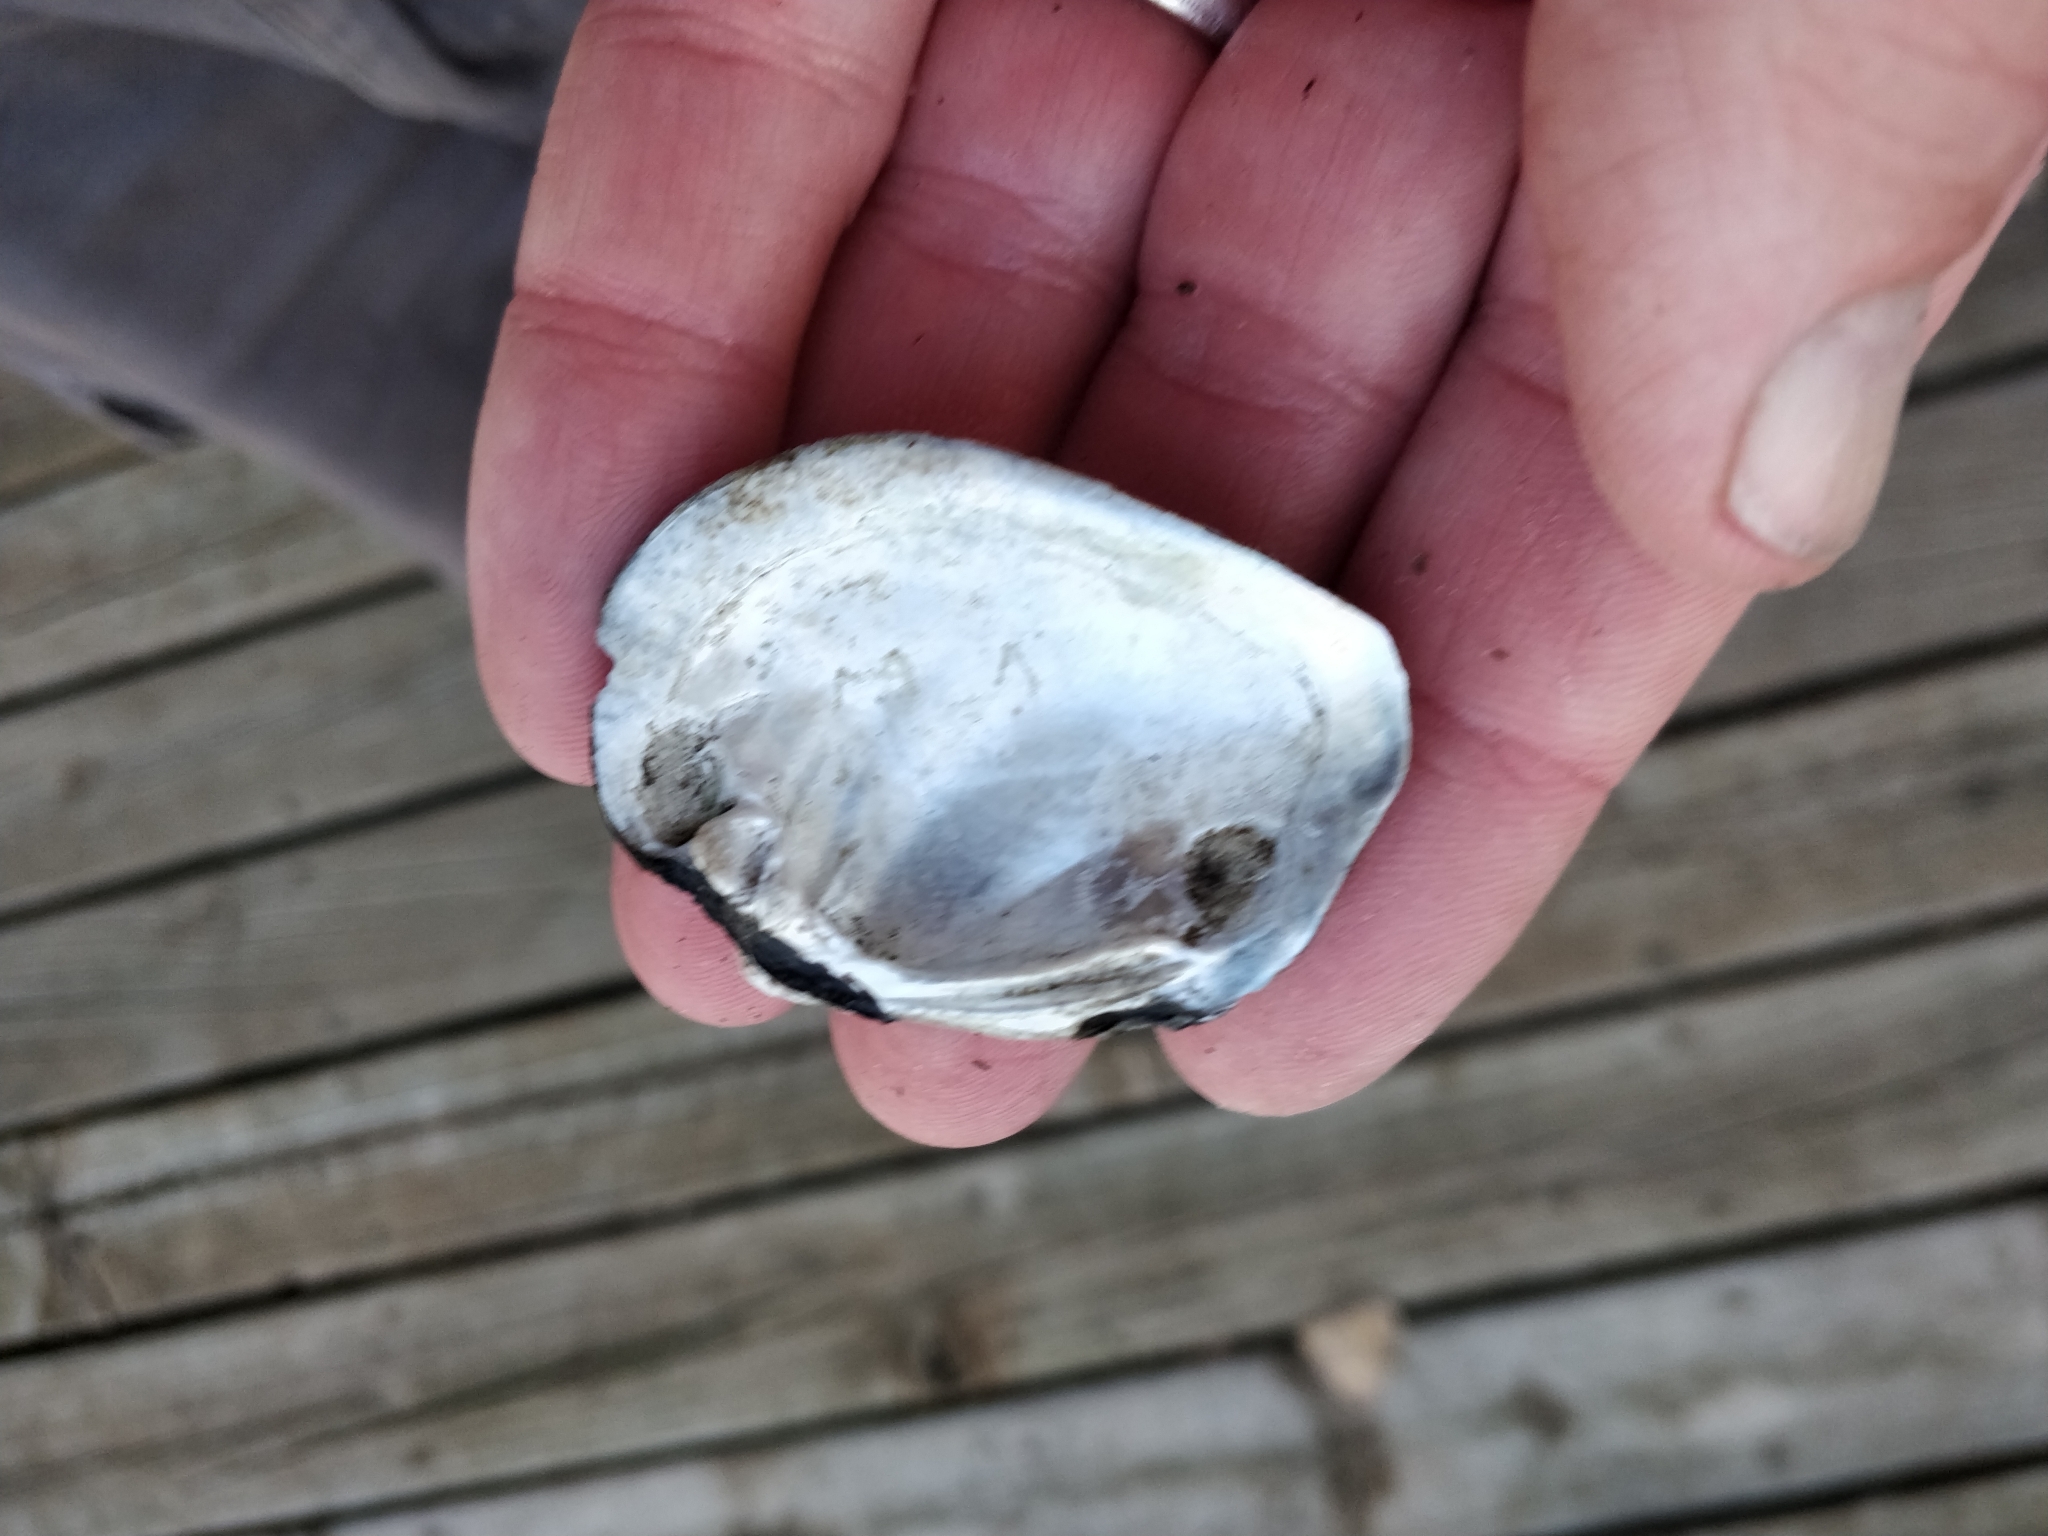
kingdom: Animalia
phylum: Mollusca
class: Bivalvia
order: Unionida
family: Unionidae
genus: Fusconaia
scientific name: Fusconaia flava
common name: Wabash pigtoe
